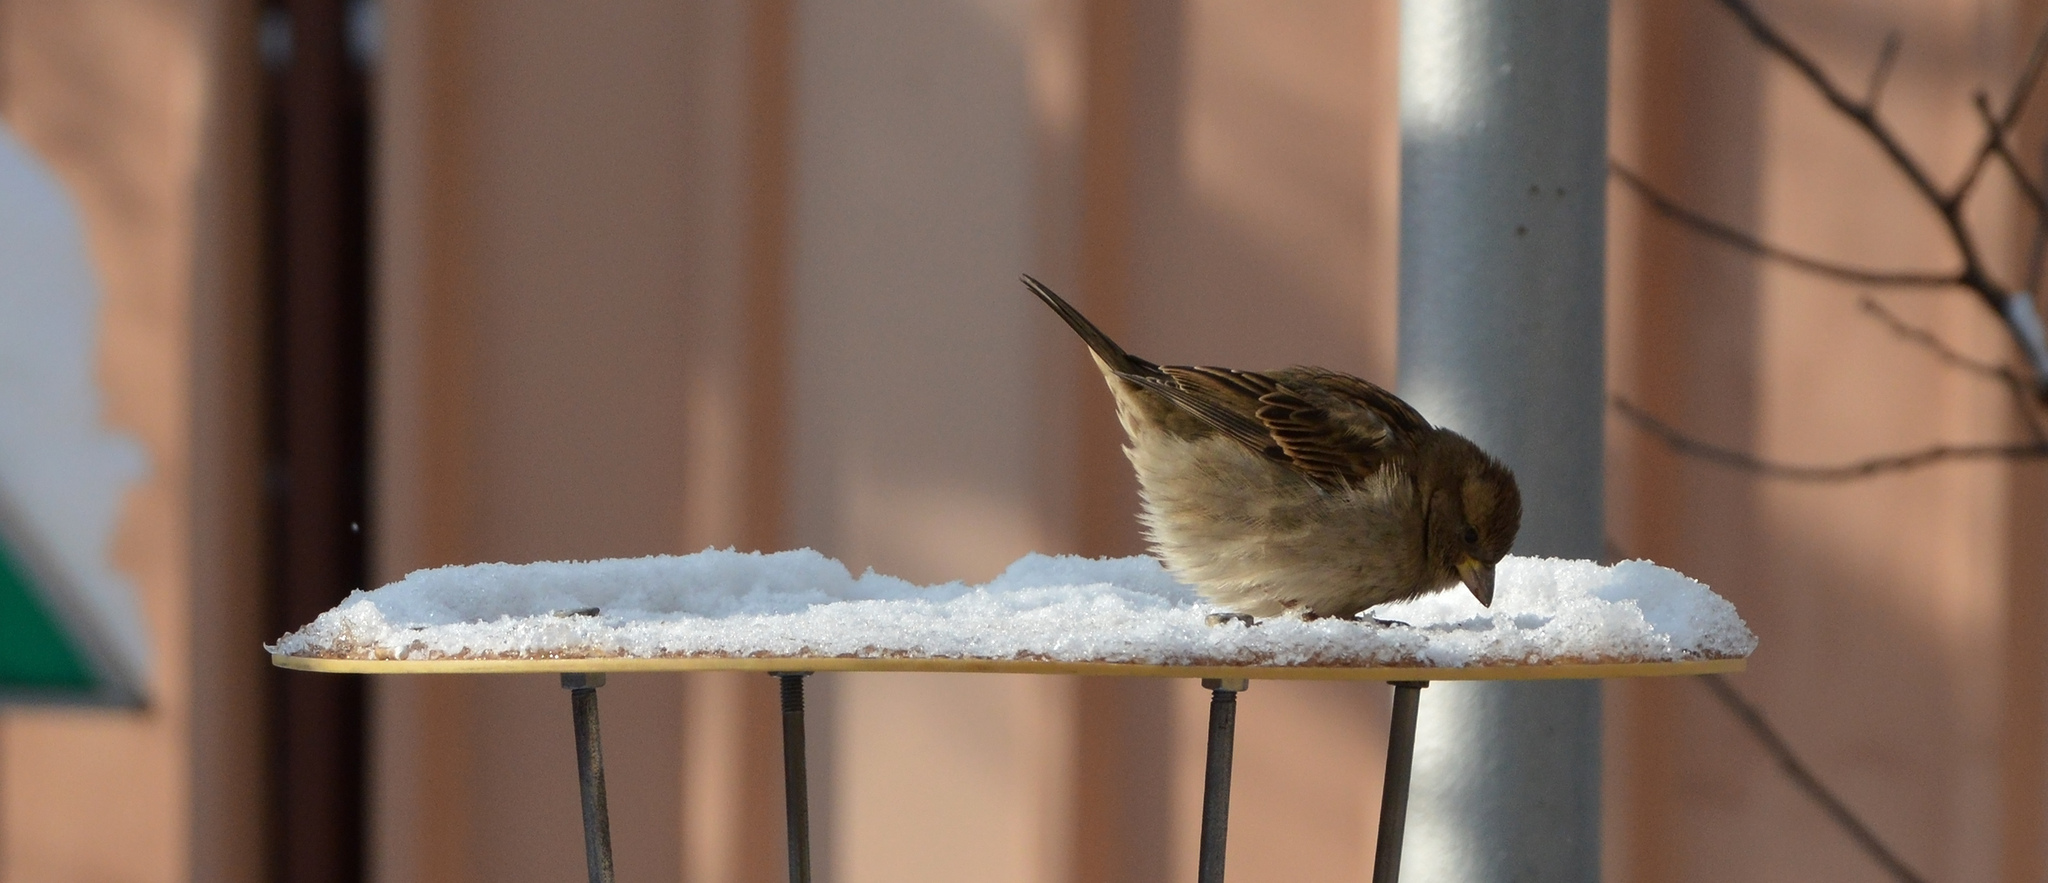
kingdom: Animalia
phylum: Chordata
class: Aves
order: Passeriformes
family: Passeridae
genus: Passer
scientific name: Passer domesticus
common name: House sparrow
